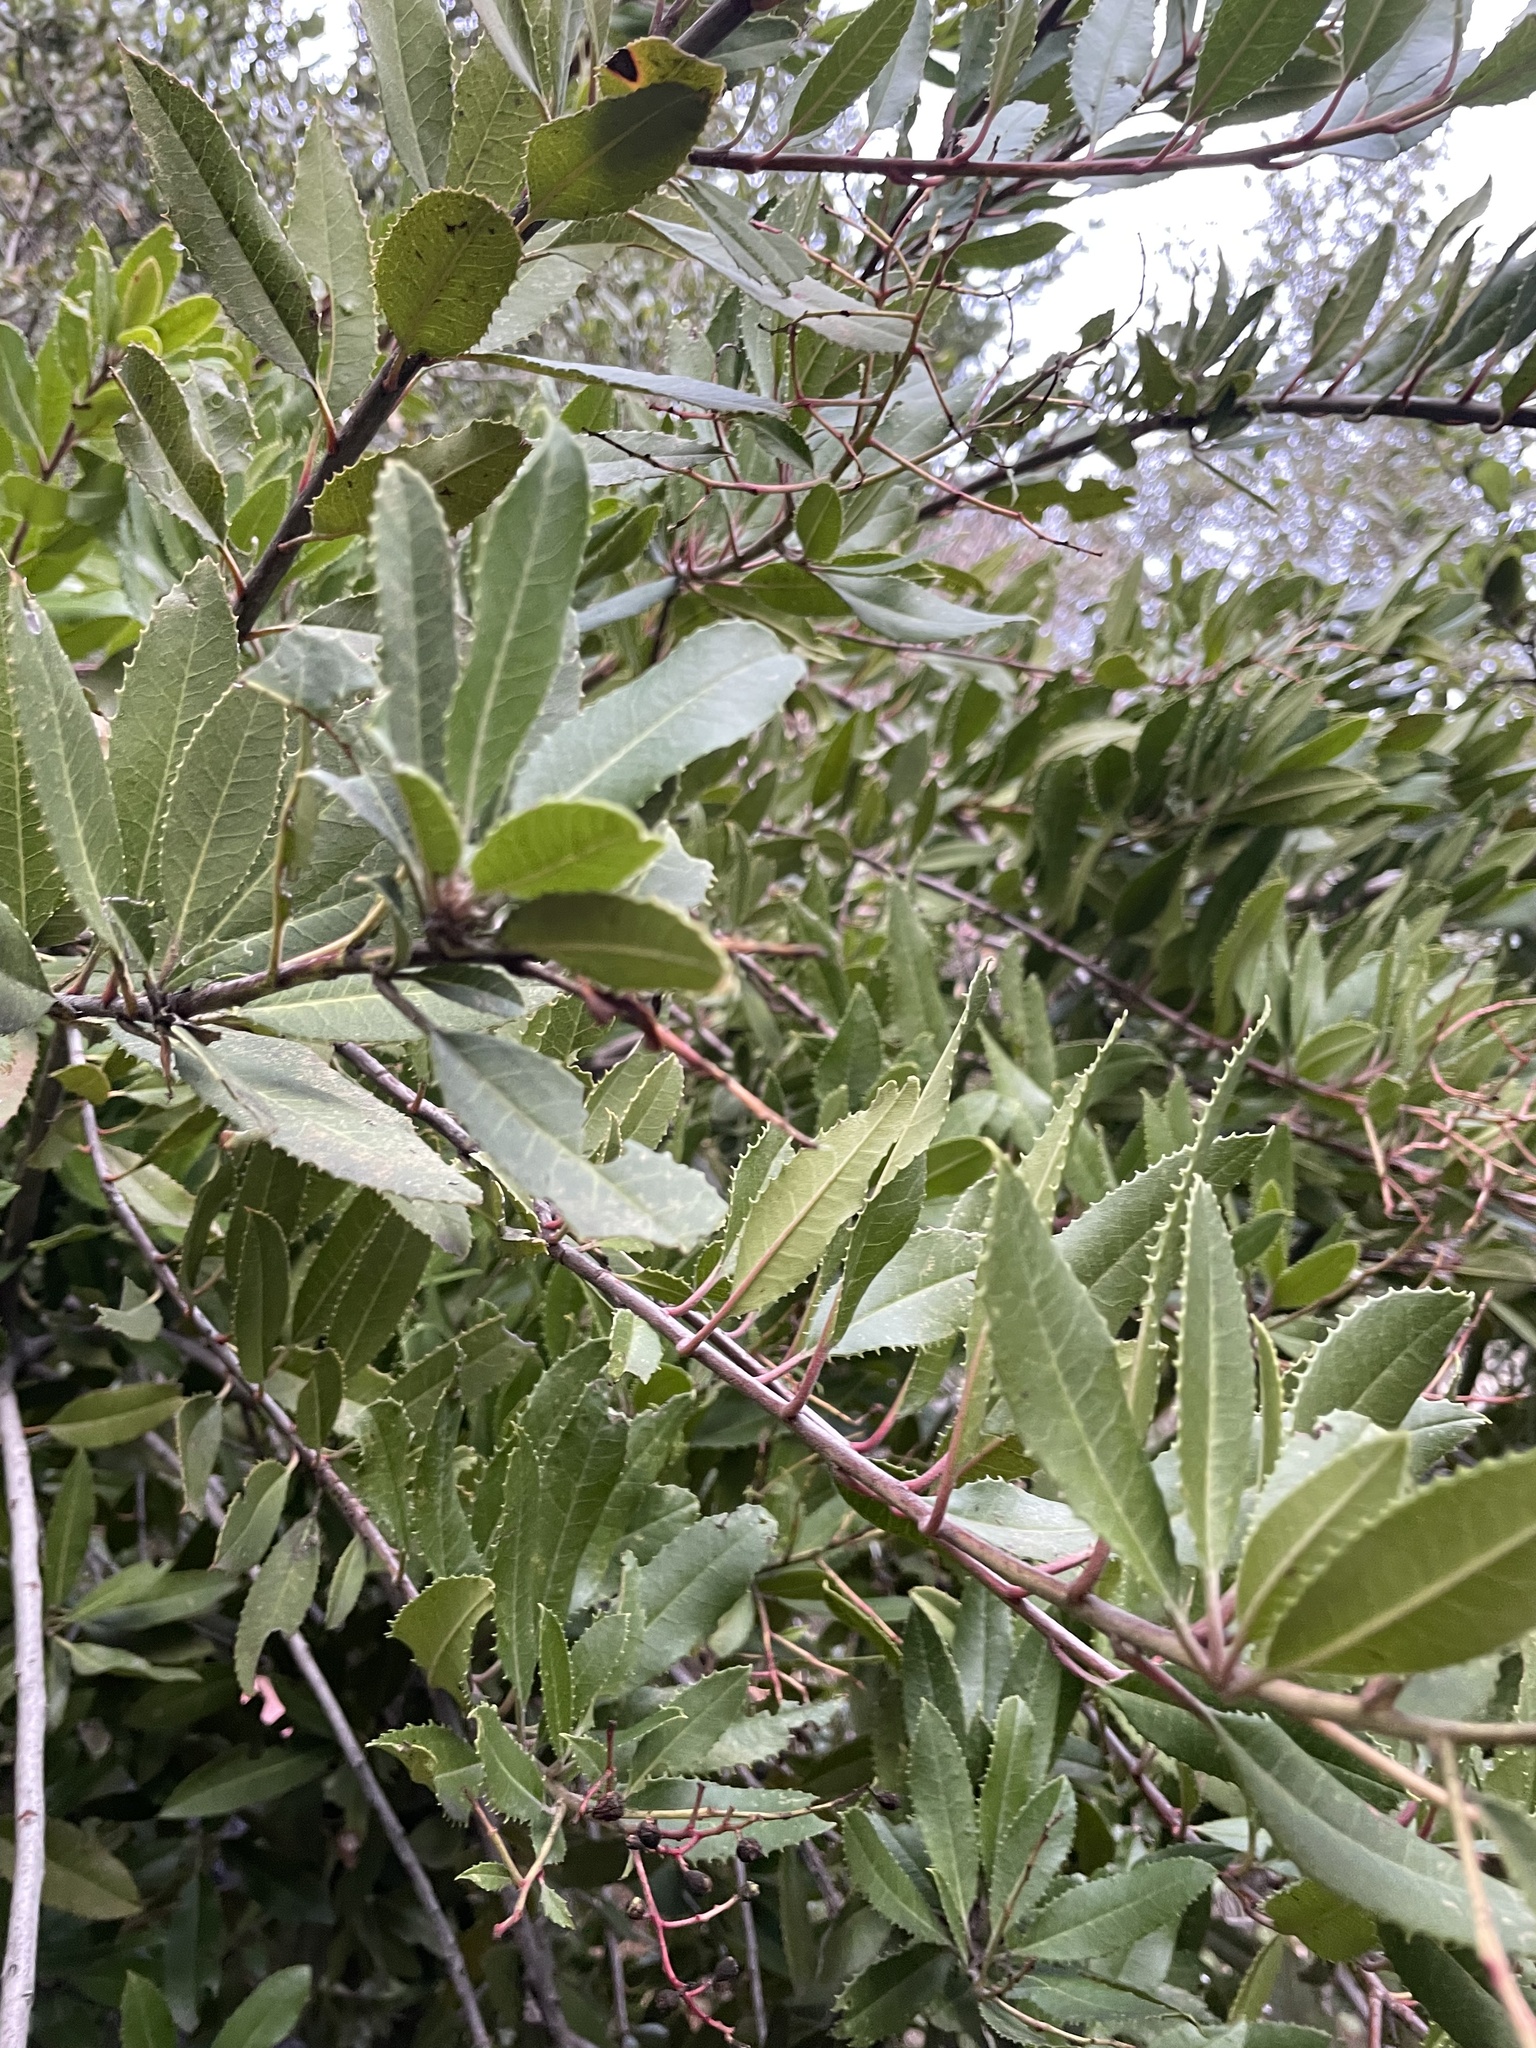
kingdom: Plantae
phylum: Tracheophyta
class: Magnoliopsida
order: Rosales
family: Rosaceae
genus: Heteromeles
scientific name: Heteromeles arbutifolia
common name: California-holly
